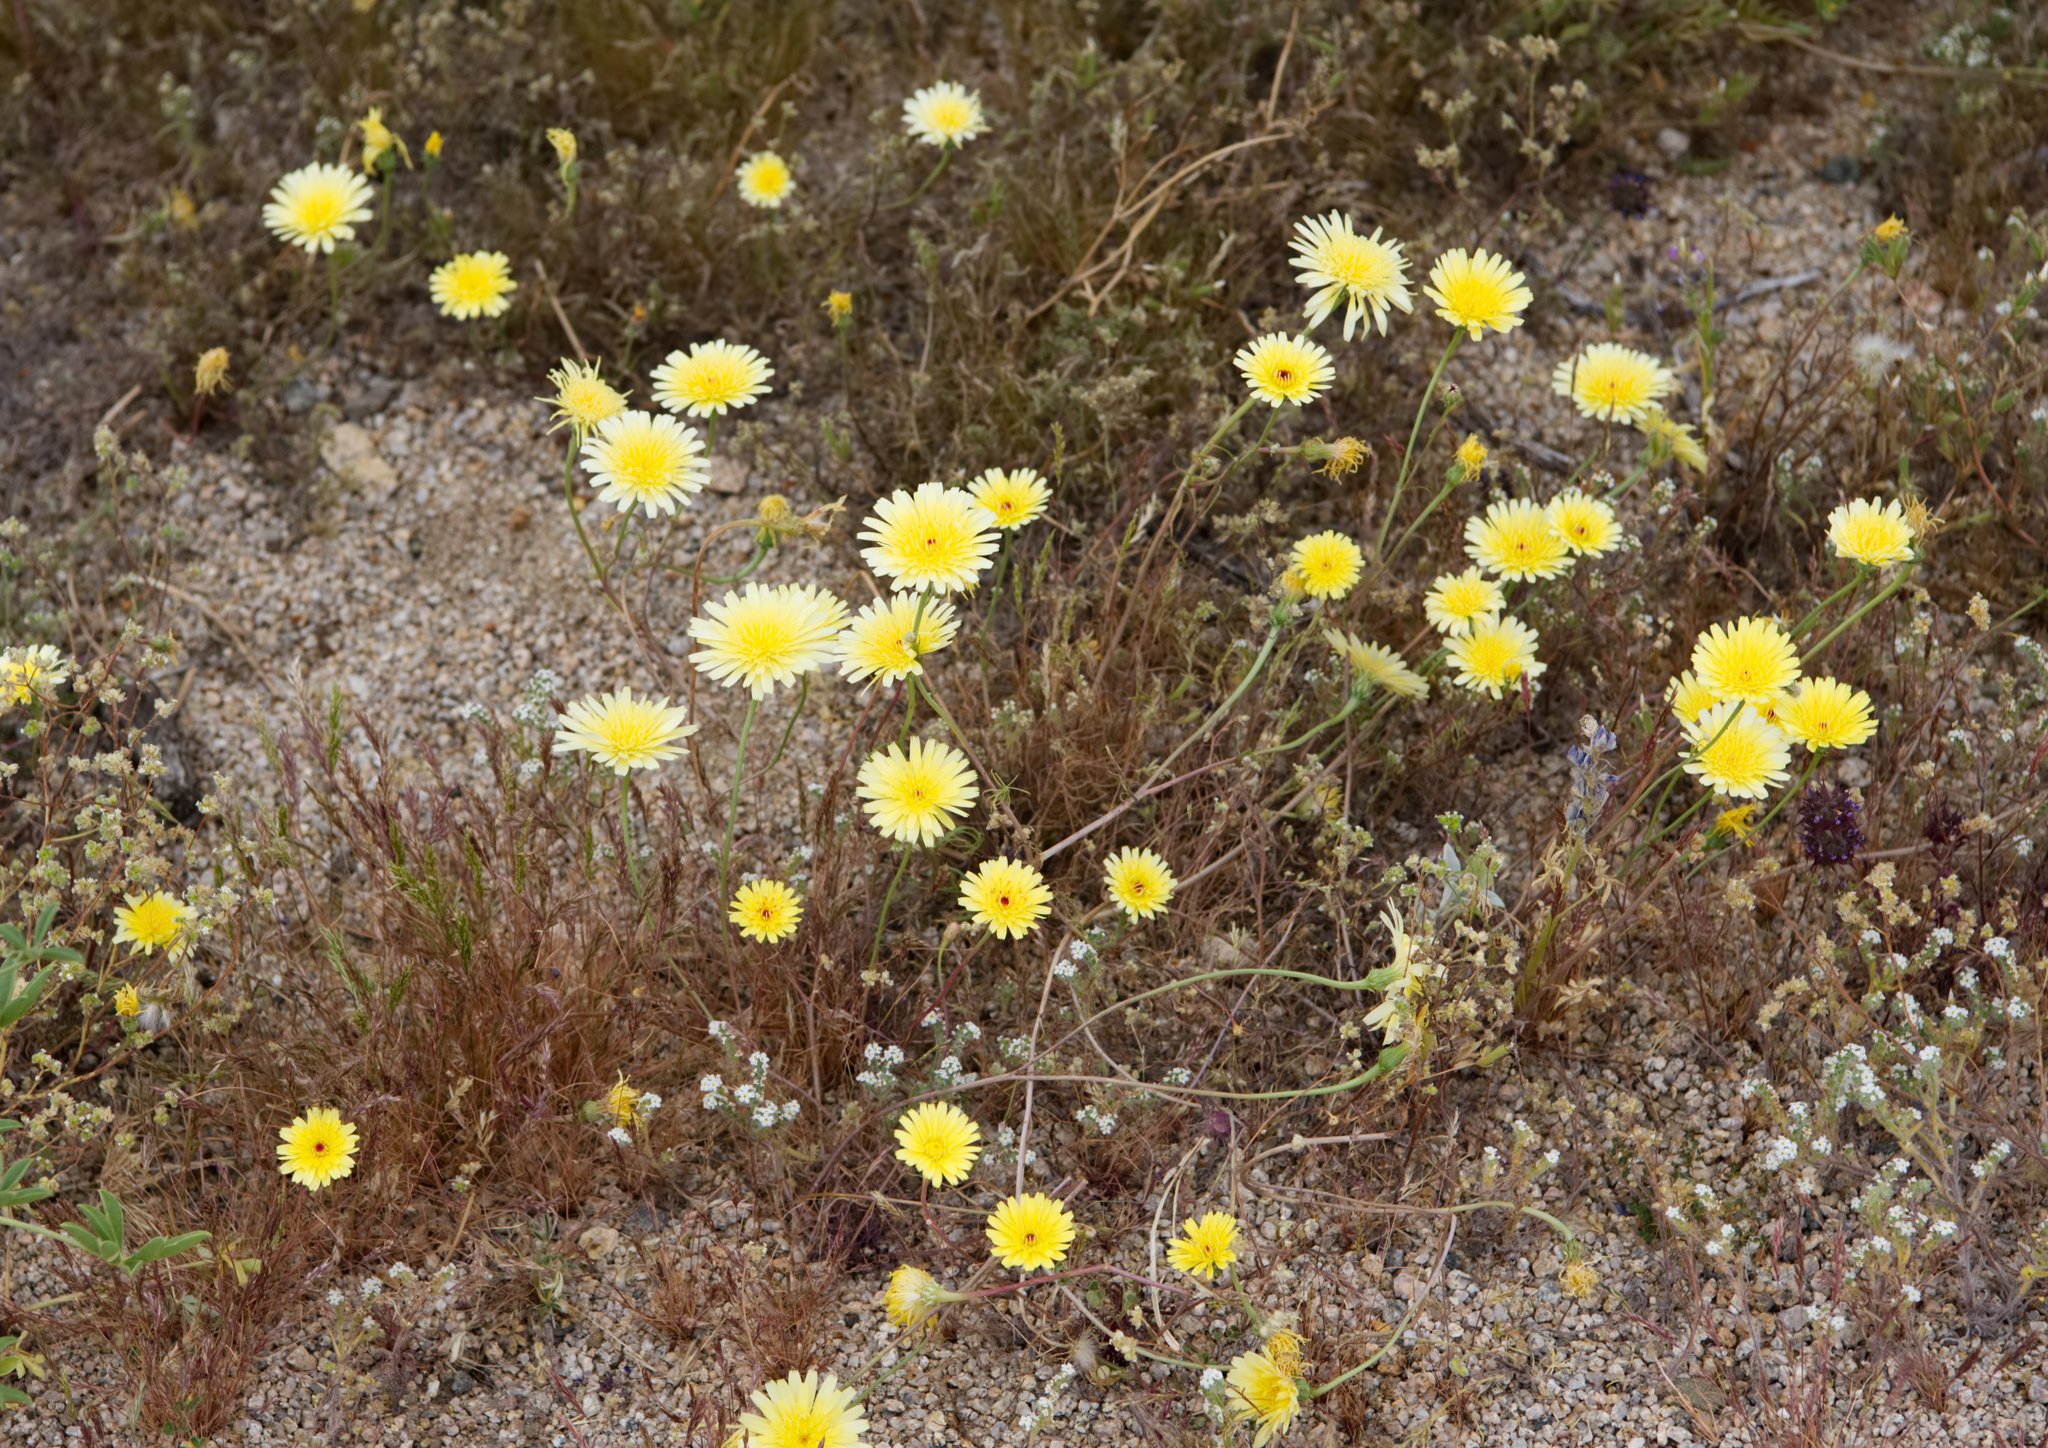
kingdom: Plantae
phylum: Tracheophyta
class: Magnoliopsida
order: Asterales
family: Asteraceae
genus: Malacothrix
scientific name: Malacothrix glabrata
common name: Smooth desert-dandelion
